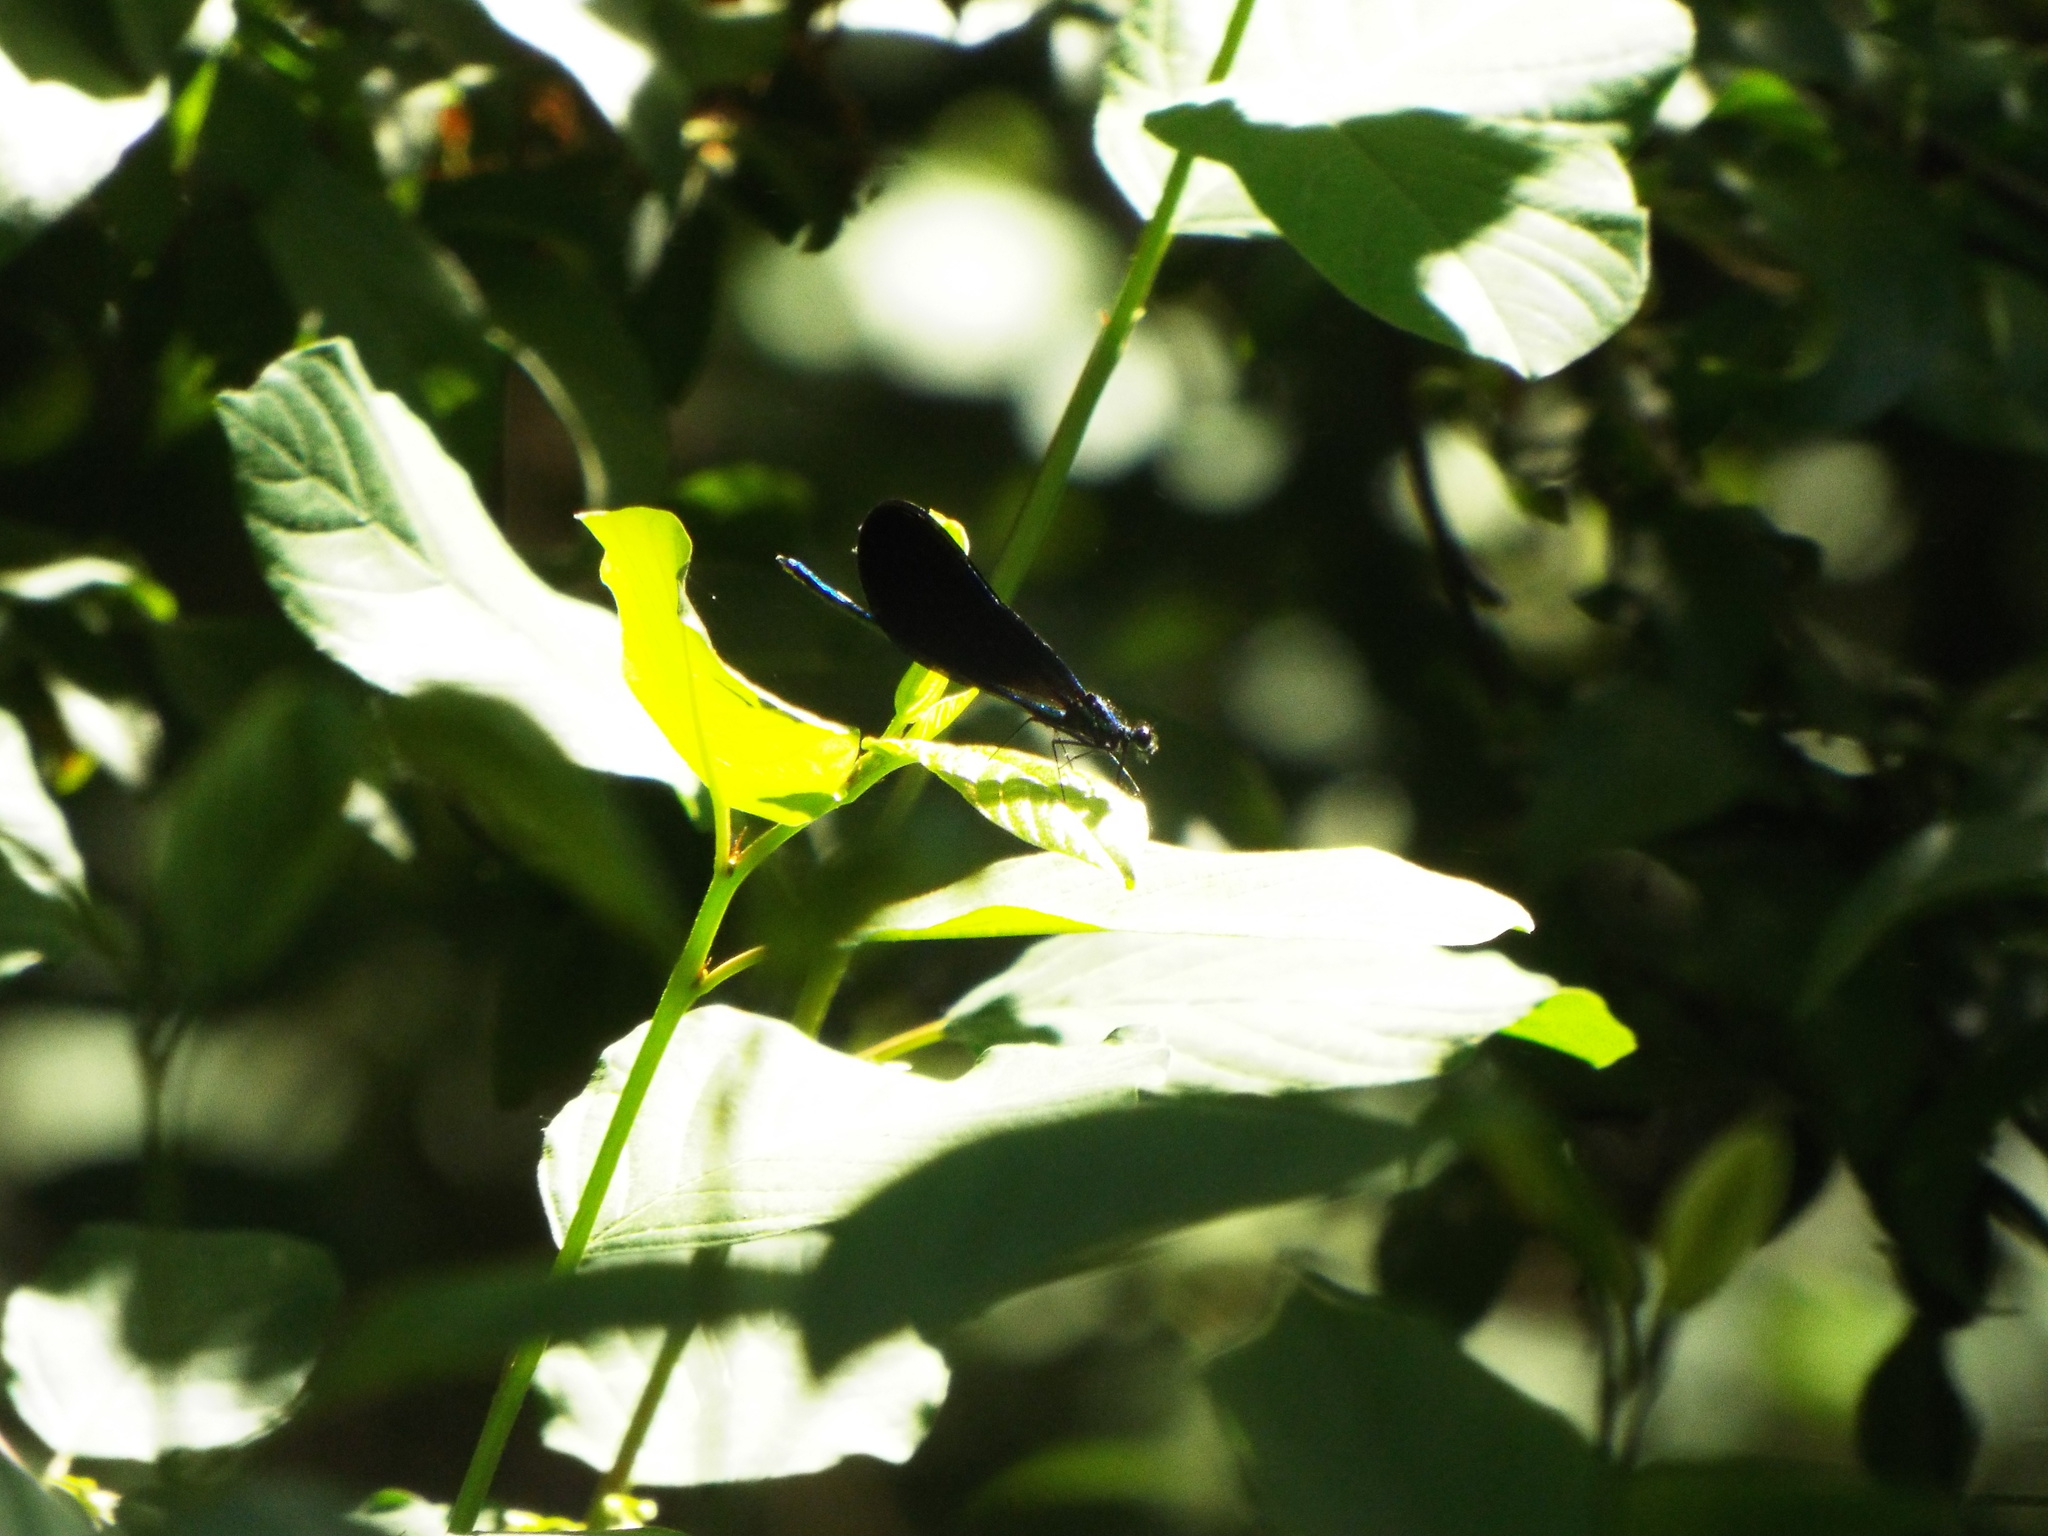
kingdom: Animalia
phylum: Arthropoda
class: Insecta
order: Odonata
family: Calopterygidae
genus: Calopteryx
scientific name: Calopteryx maculata
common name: Ebony jewelwing
